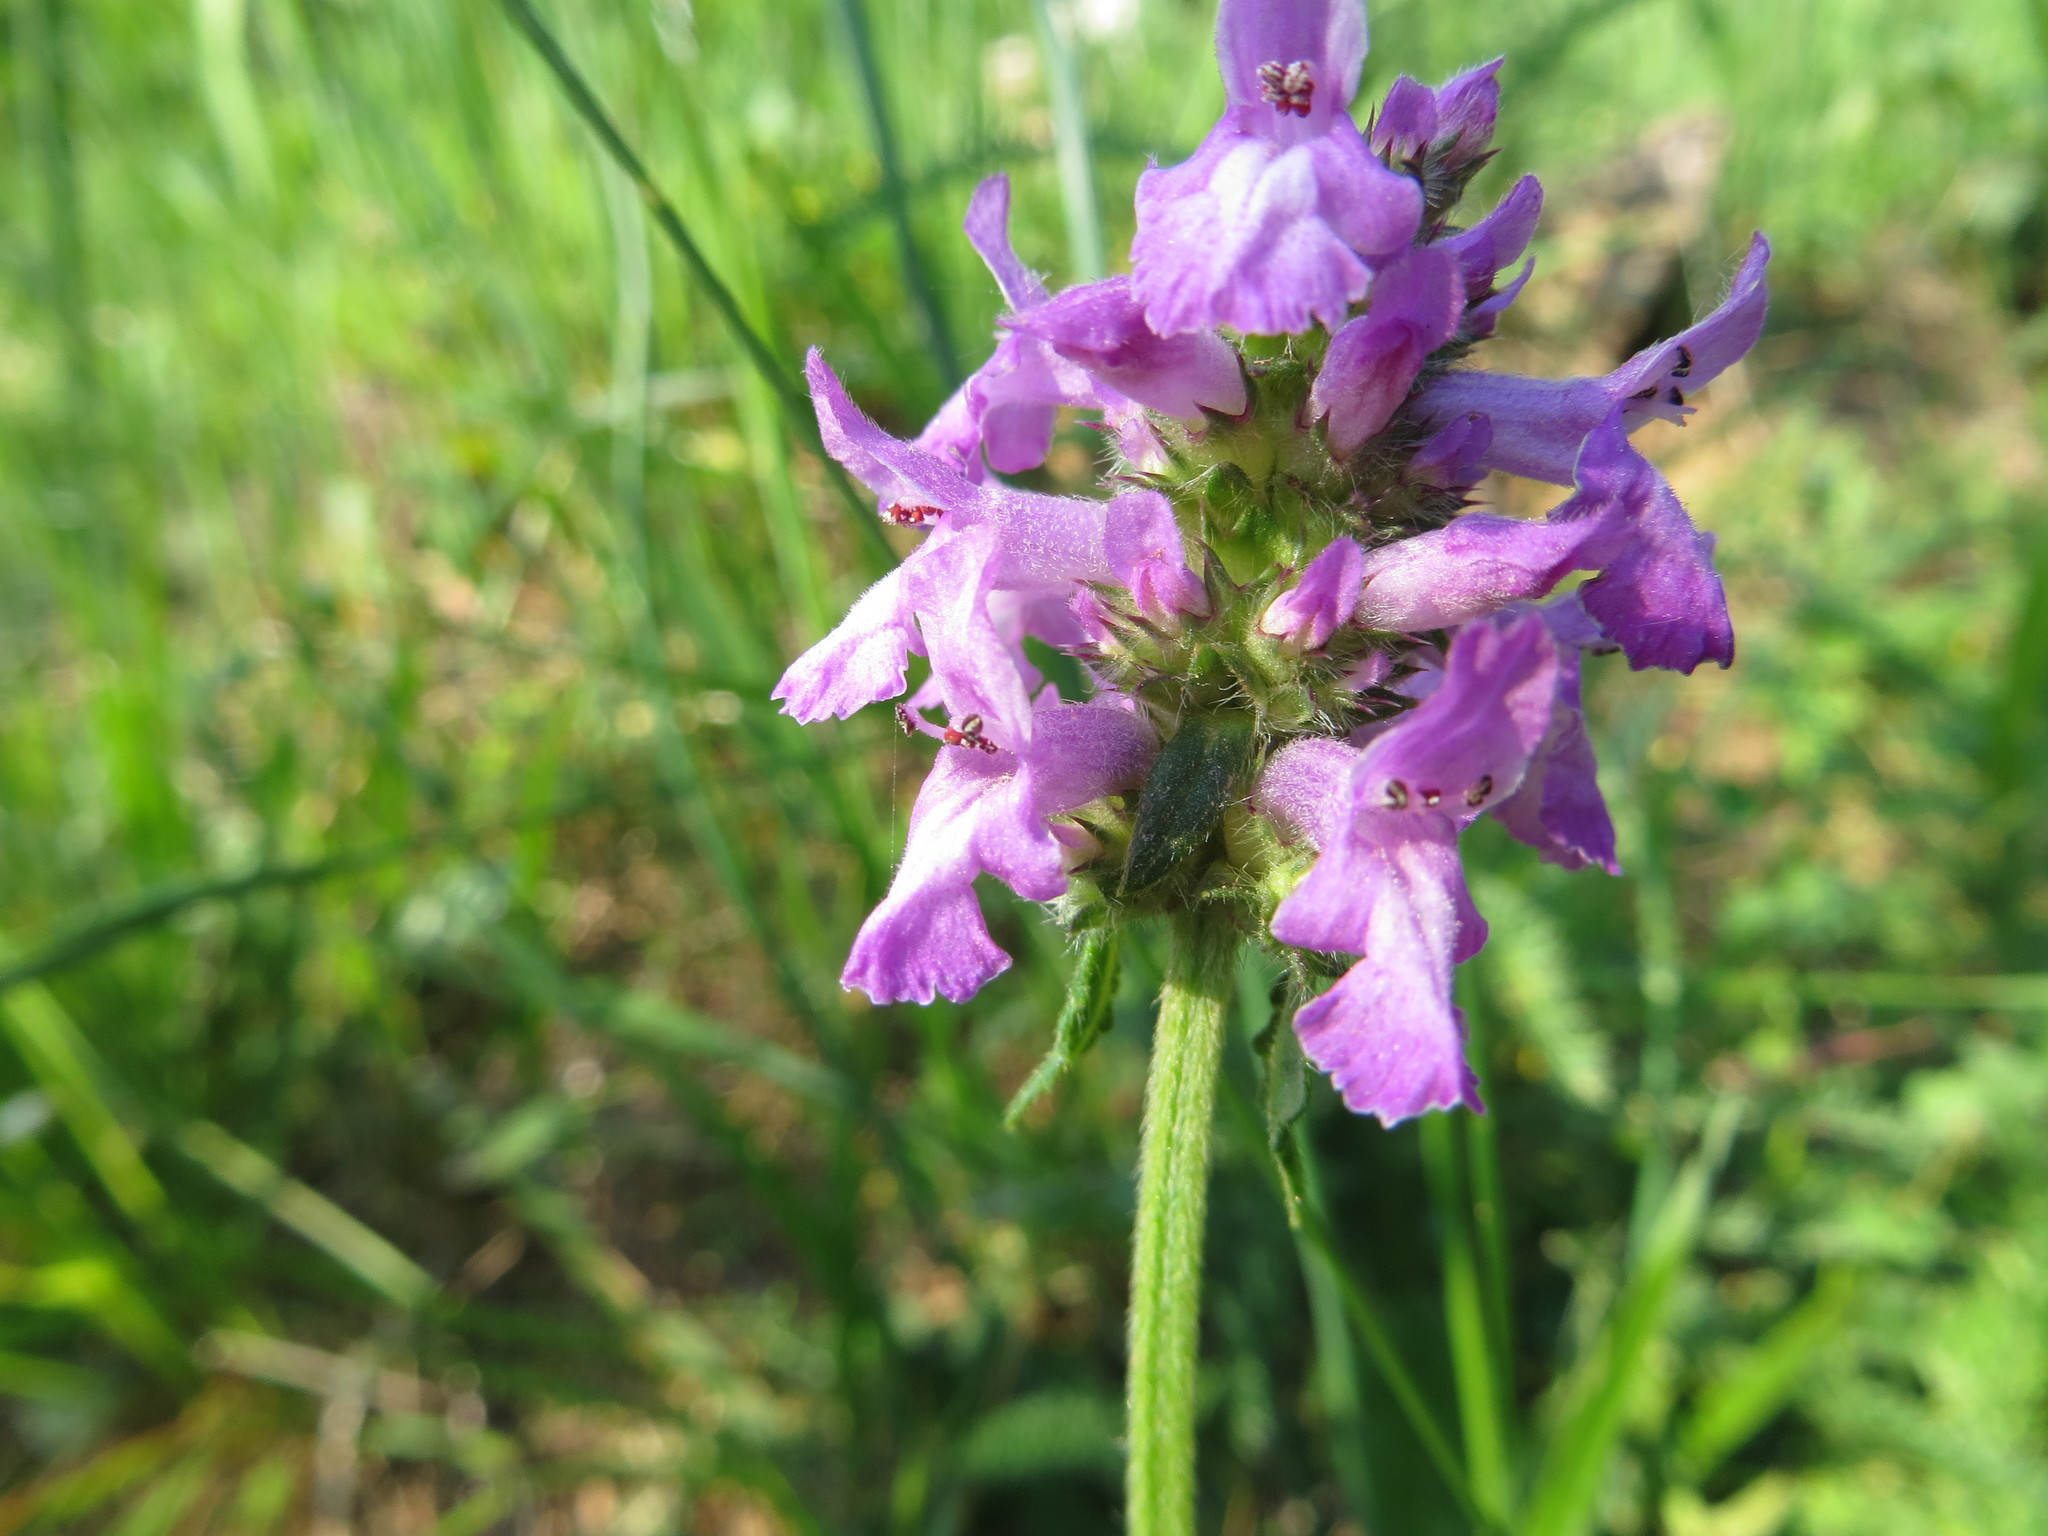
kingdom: Plantae
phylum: Tracheophyta
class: Magnoliopsida
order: Lamiales
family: Lamiaceae
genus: Betonica
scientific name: Betonica officinalis
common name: Bishop's-wort
